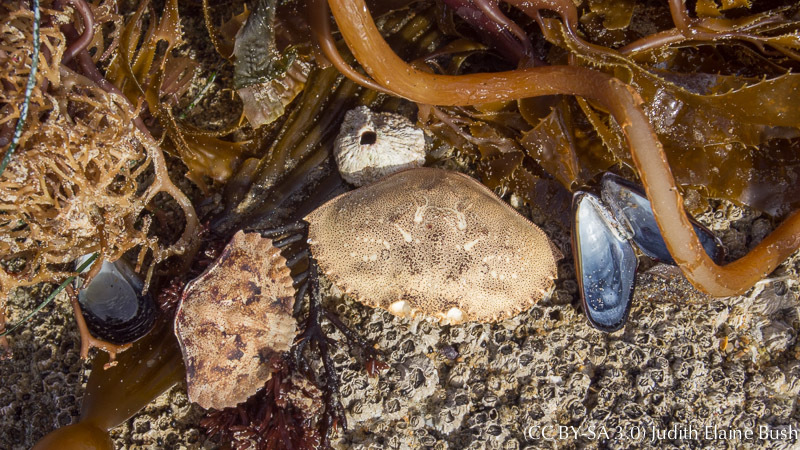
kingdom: Animalia
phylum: Arthropoda
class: Malacostraca
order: Decapoda
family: Cancridae
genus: Metacarcinus
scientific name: Metacarcinus magister
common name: Californian crab
